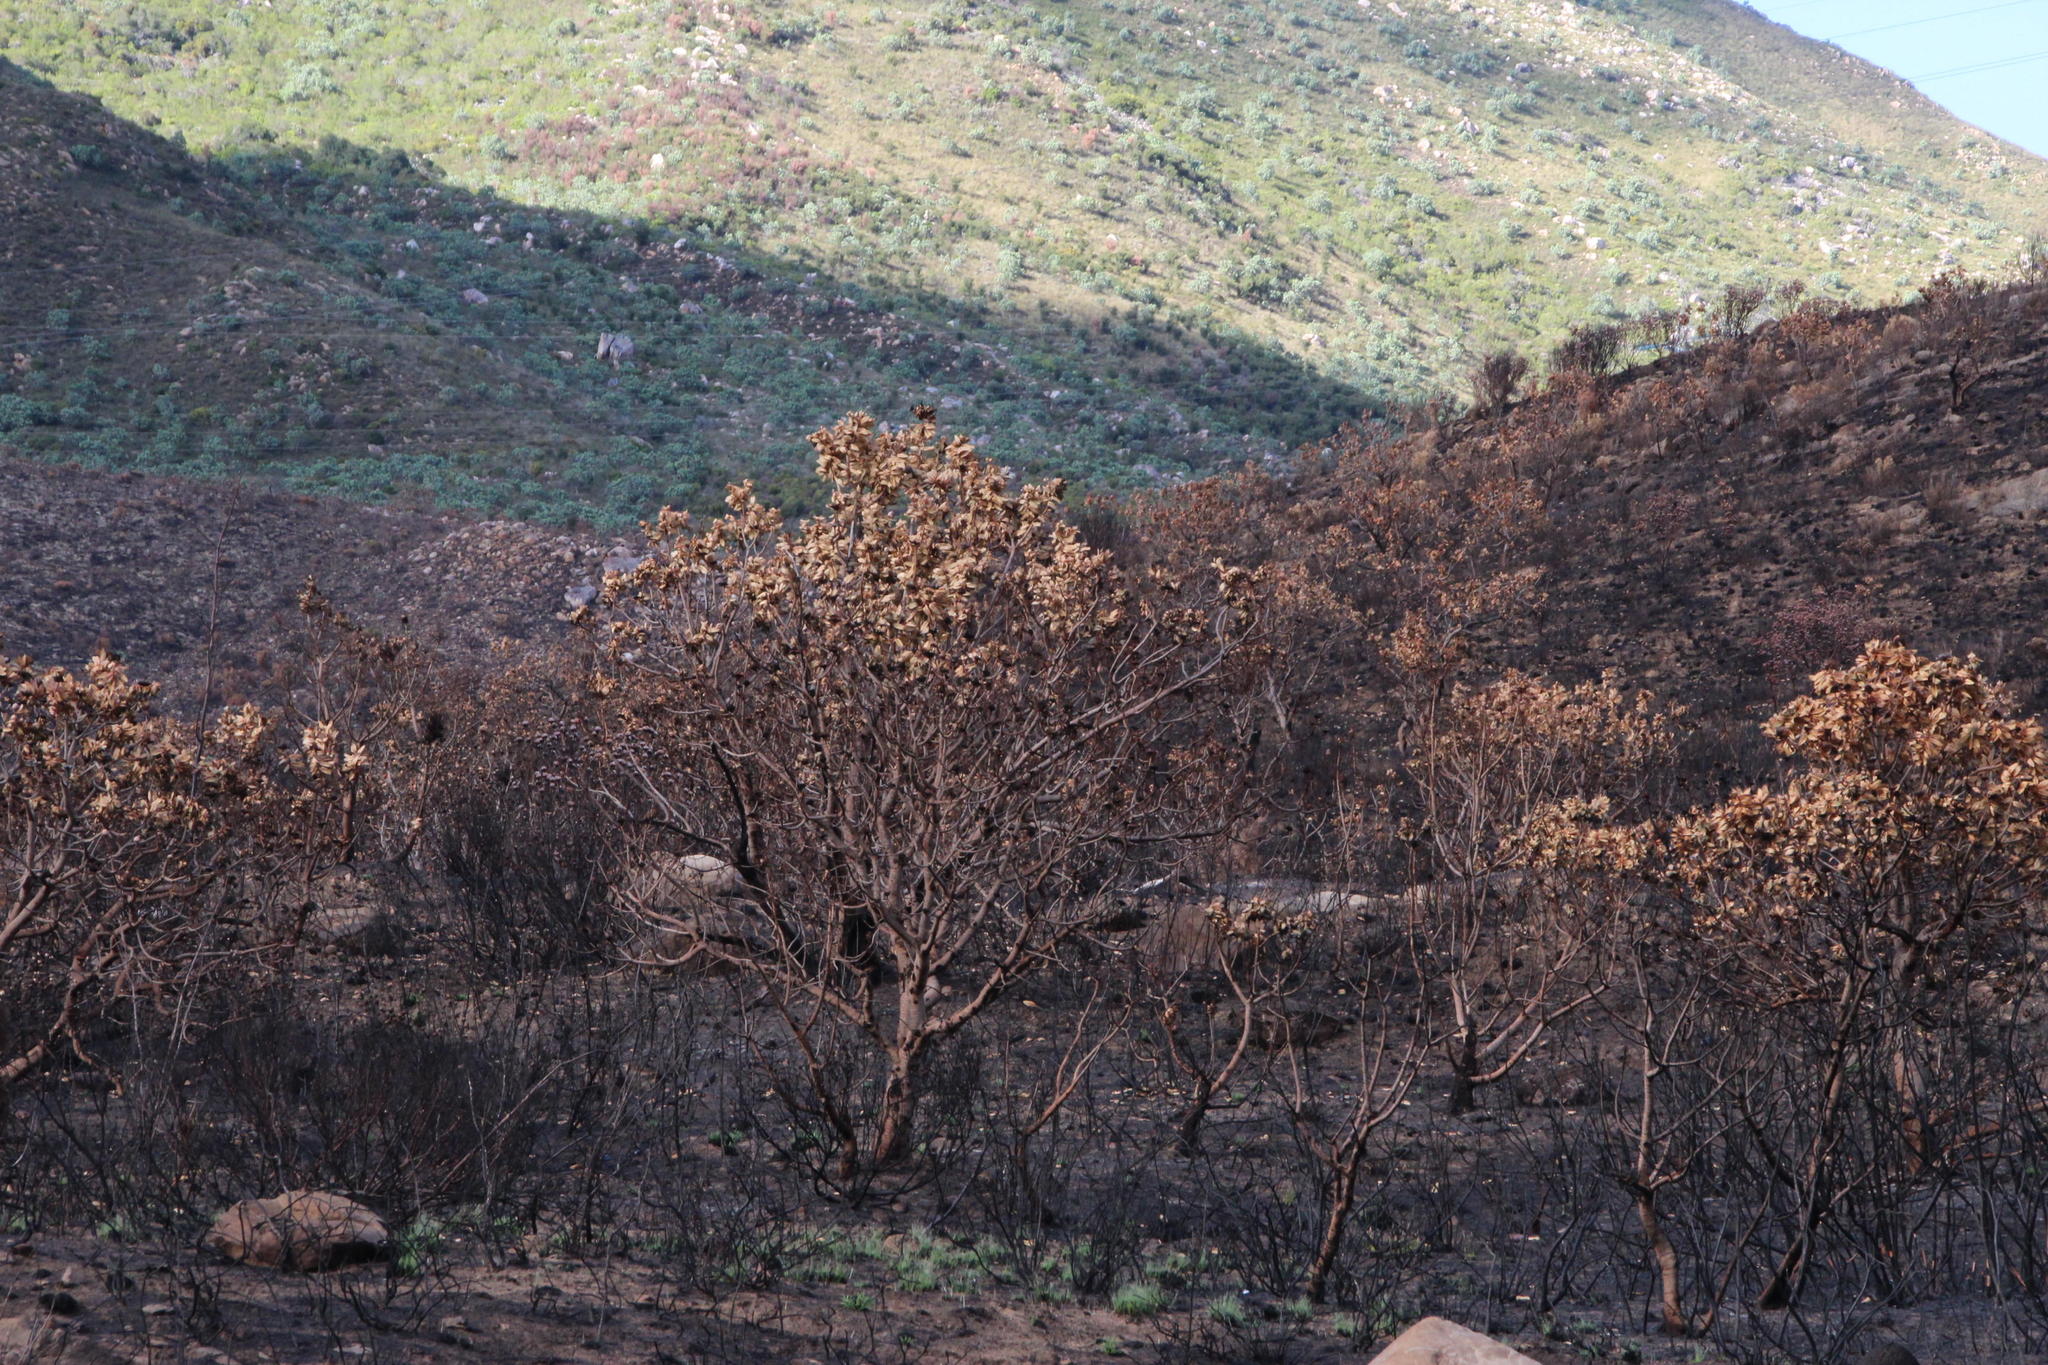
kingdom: Plantae
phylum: Tracheophyta
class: Magnoliopsida
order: Proteales
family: Proteaceae
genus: Protea
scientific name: Protea nitida
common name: Tree protea
